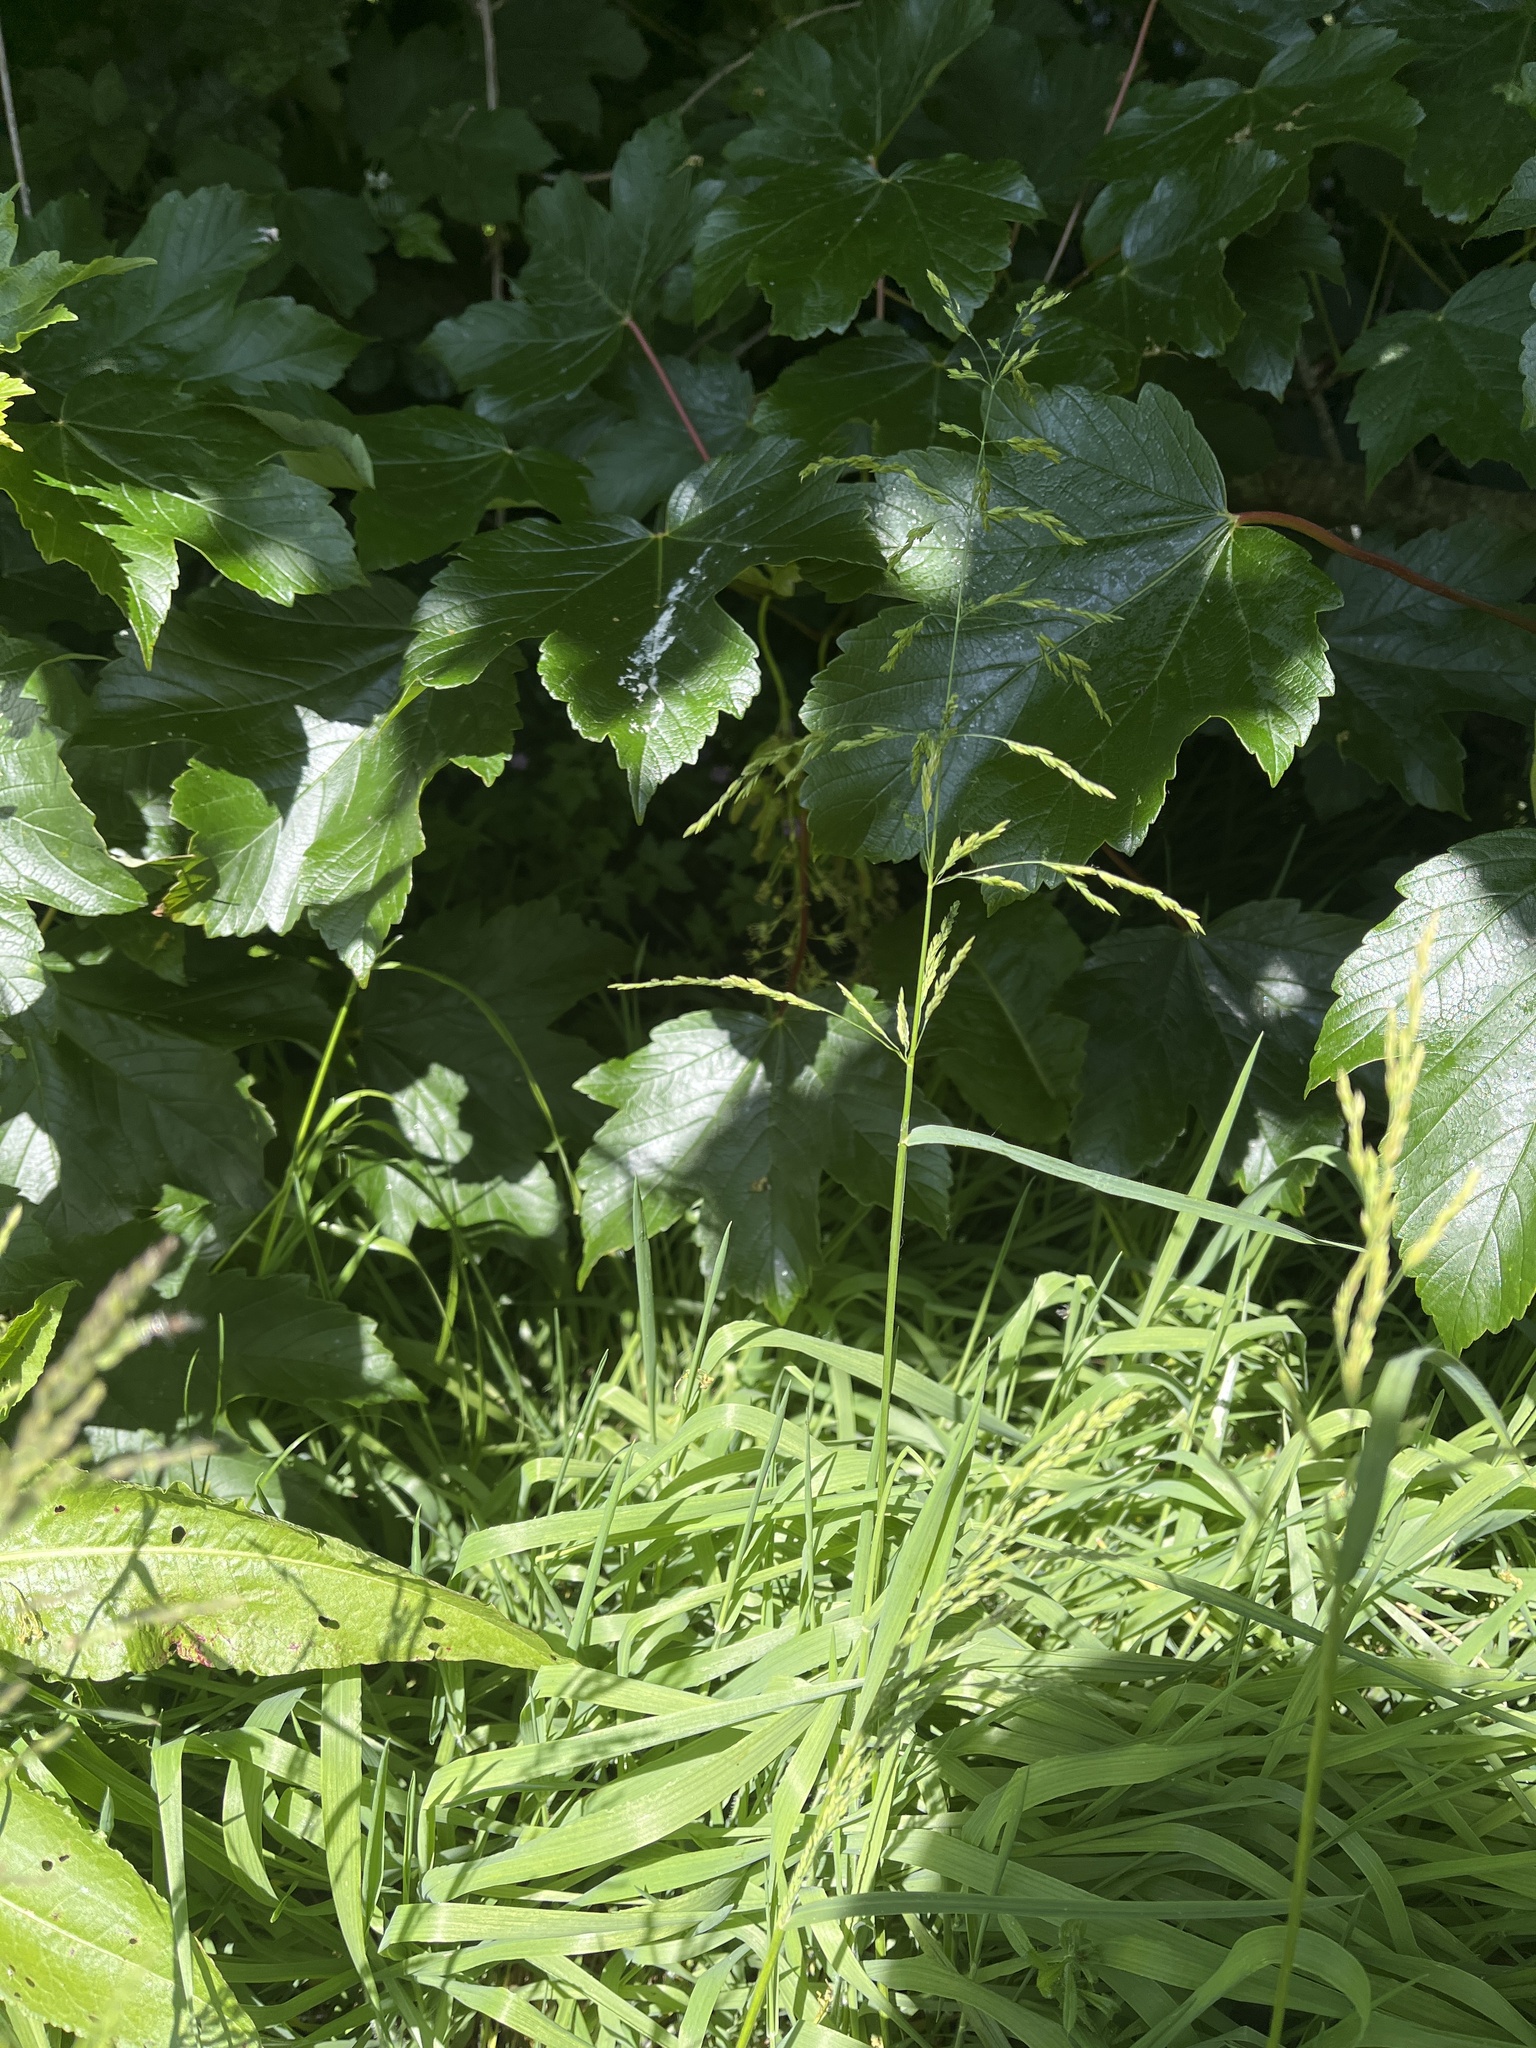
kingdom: Plantae
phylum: Tracheophyta
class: Liliopsida
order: Poales
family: Poaceae
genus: Poa
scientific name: Poa trivialis
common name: Rough bluegrass
